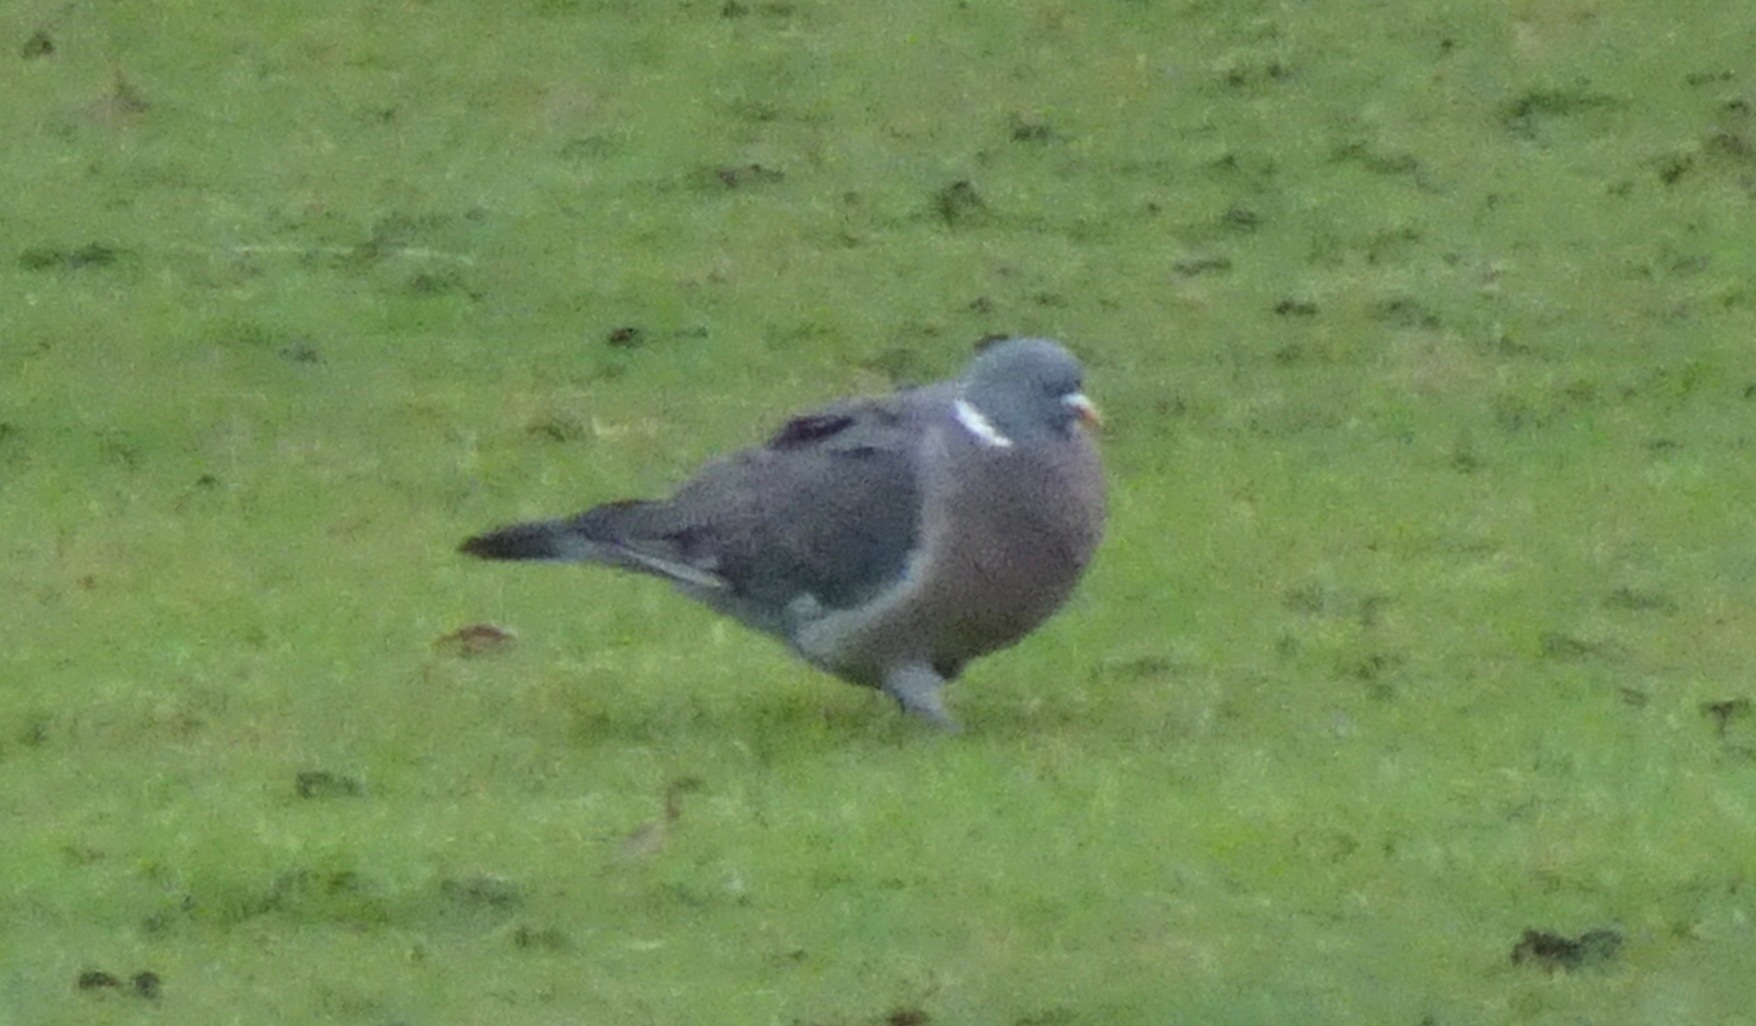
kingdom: Animalia
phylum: Chordata
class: Aves
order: Columbiformes
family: Columbidae
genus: Columba
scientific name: Columba palumbus
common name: Common wood pigeon
